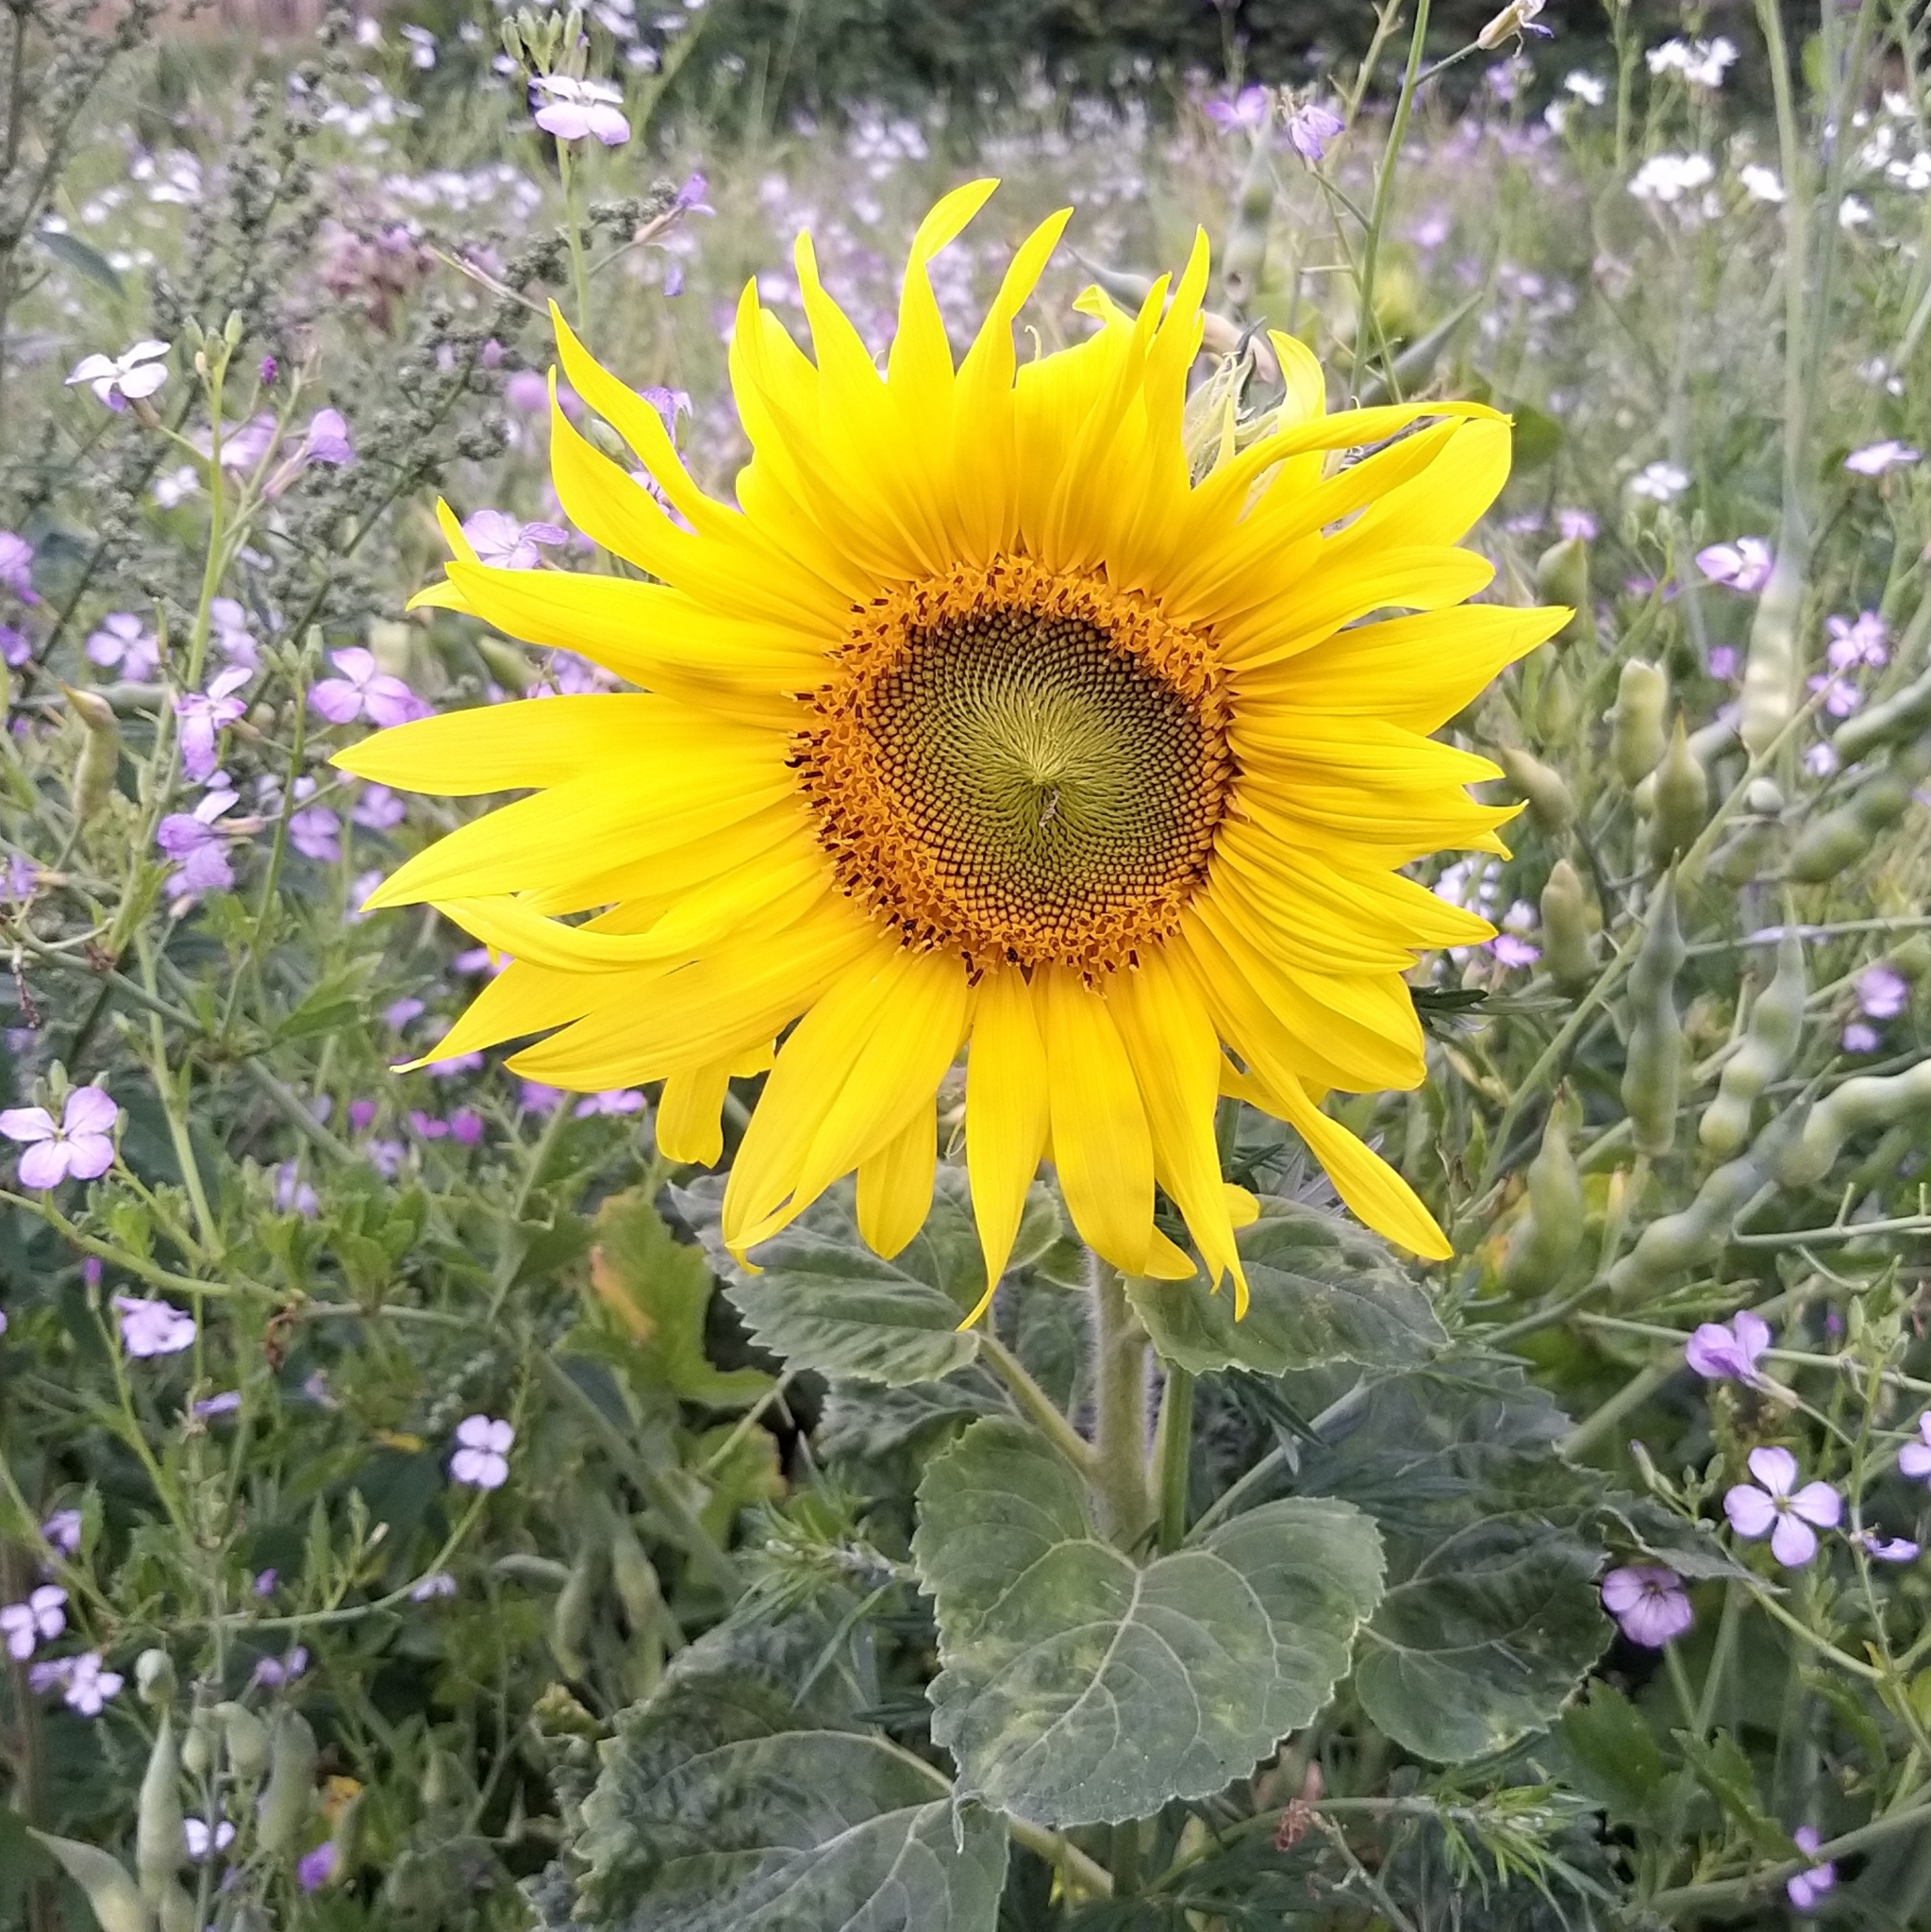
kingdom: Plantae
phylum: Tracheophyta
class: Magnoliopsida
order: Asterales
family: Asteraceae
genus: Helianthus
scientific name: Helianthus annuus
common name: Sunflower
